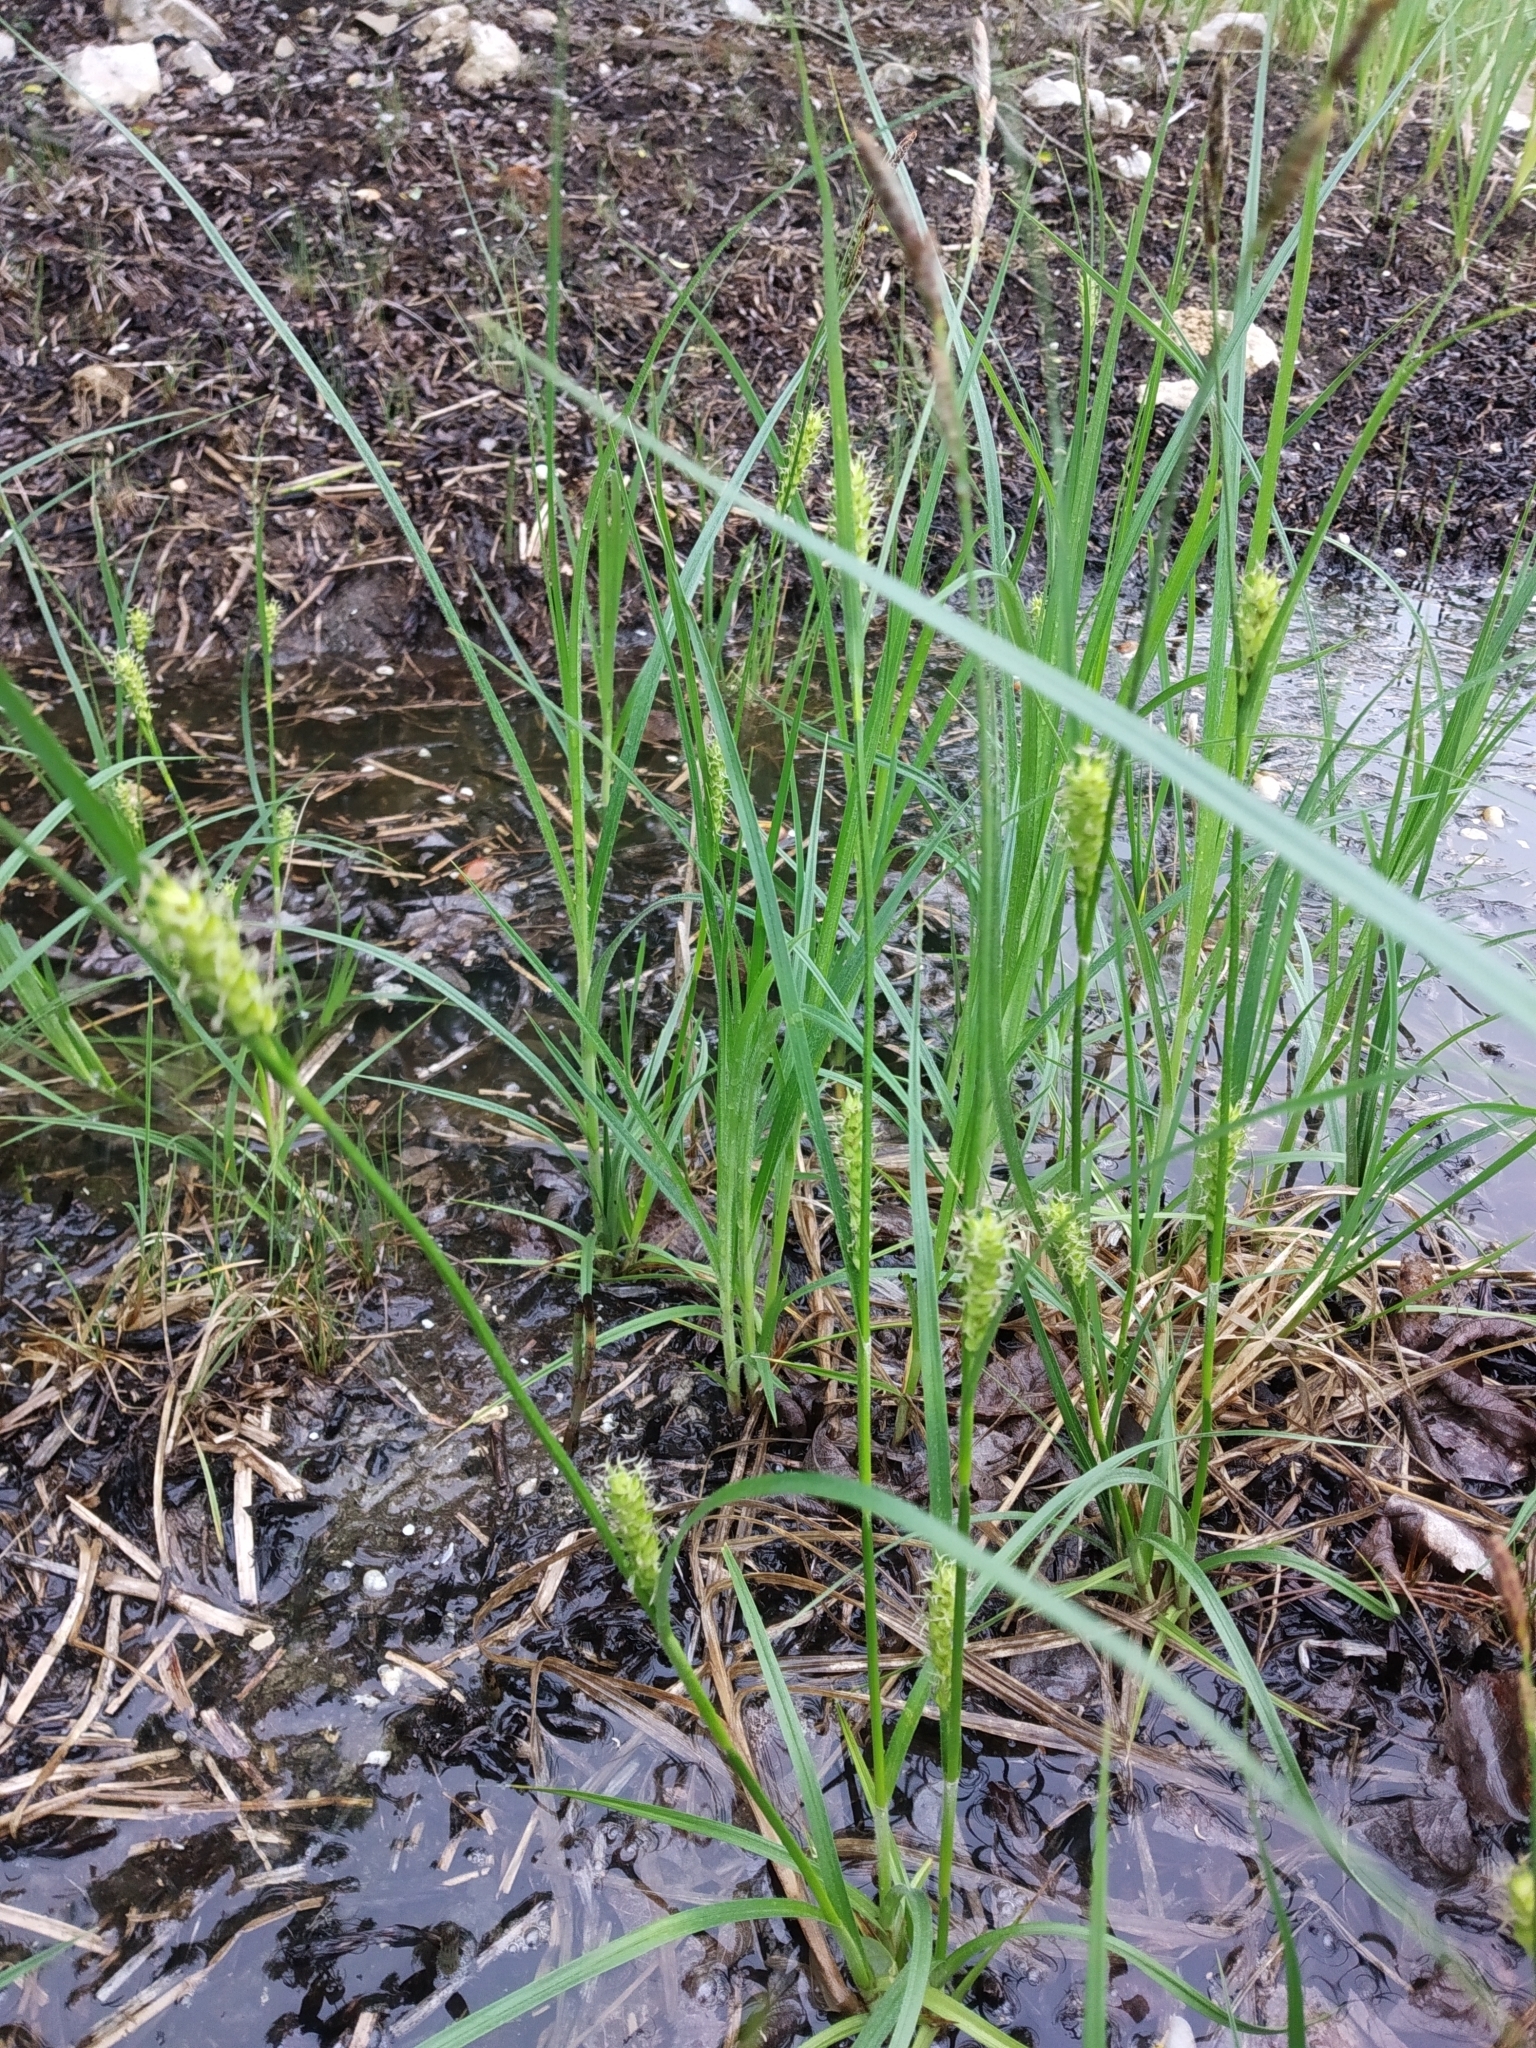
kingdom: Plantae
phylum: Tracheophyta
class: Liliopsida
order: Poales
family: Cyperaceae
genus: Carex
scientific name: Carex hirta
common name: Hairy sedge
